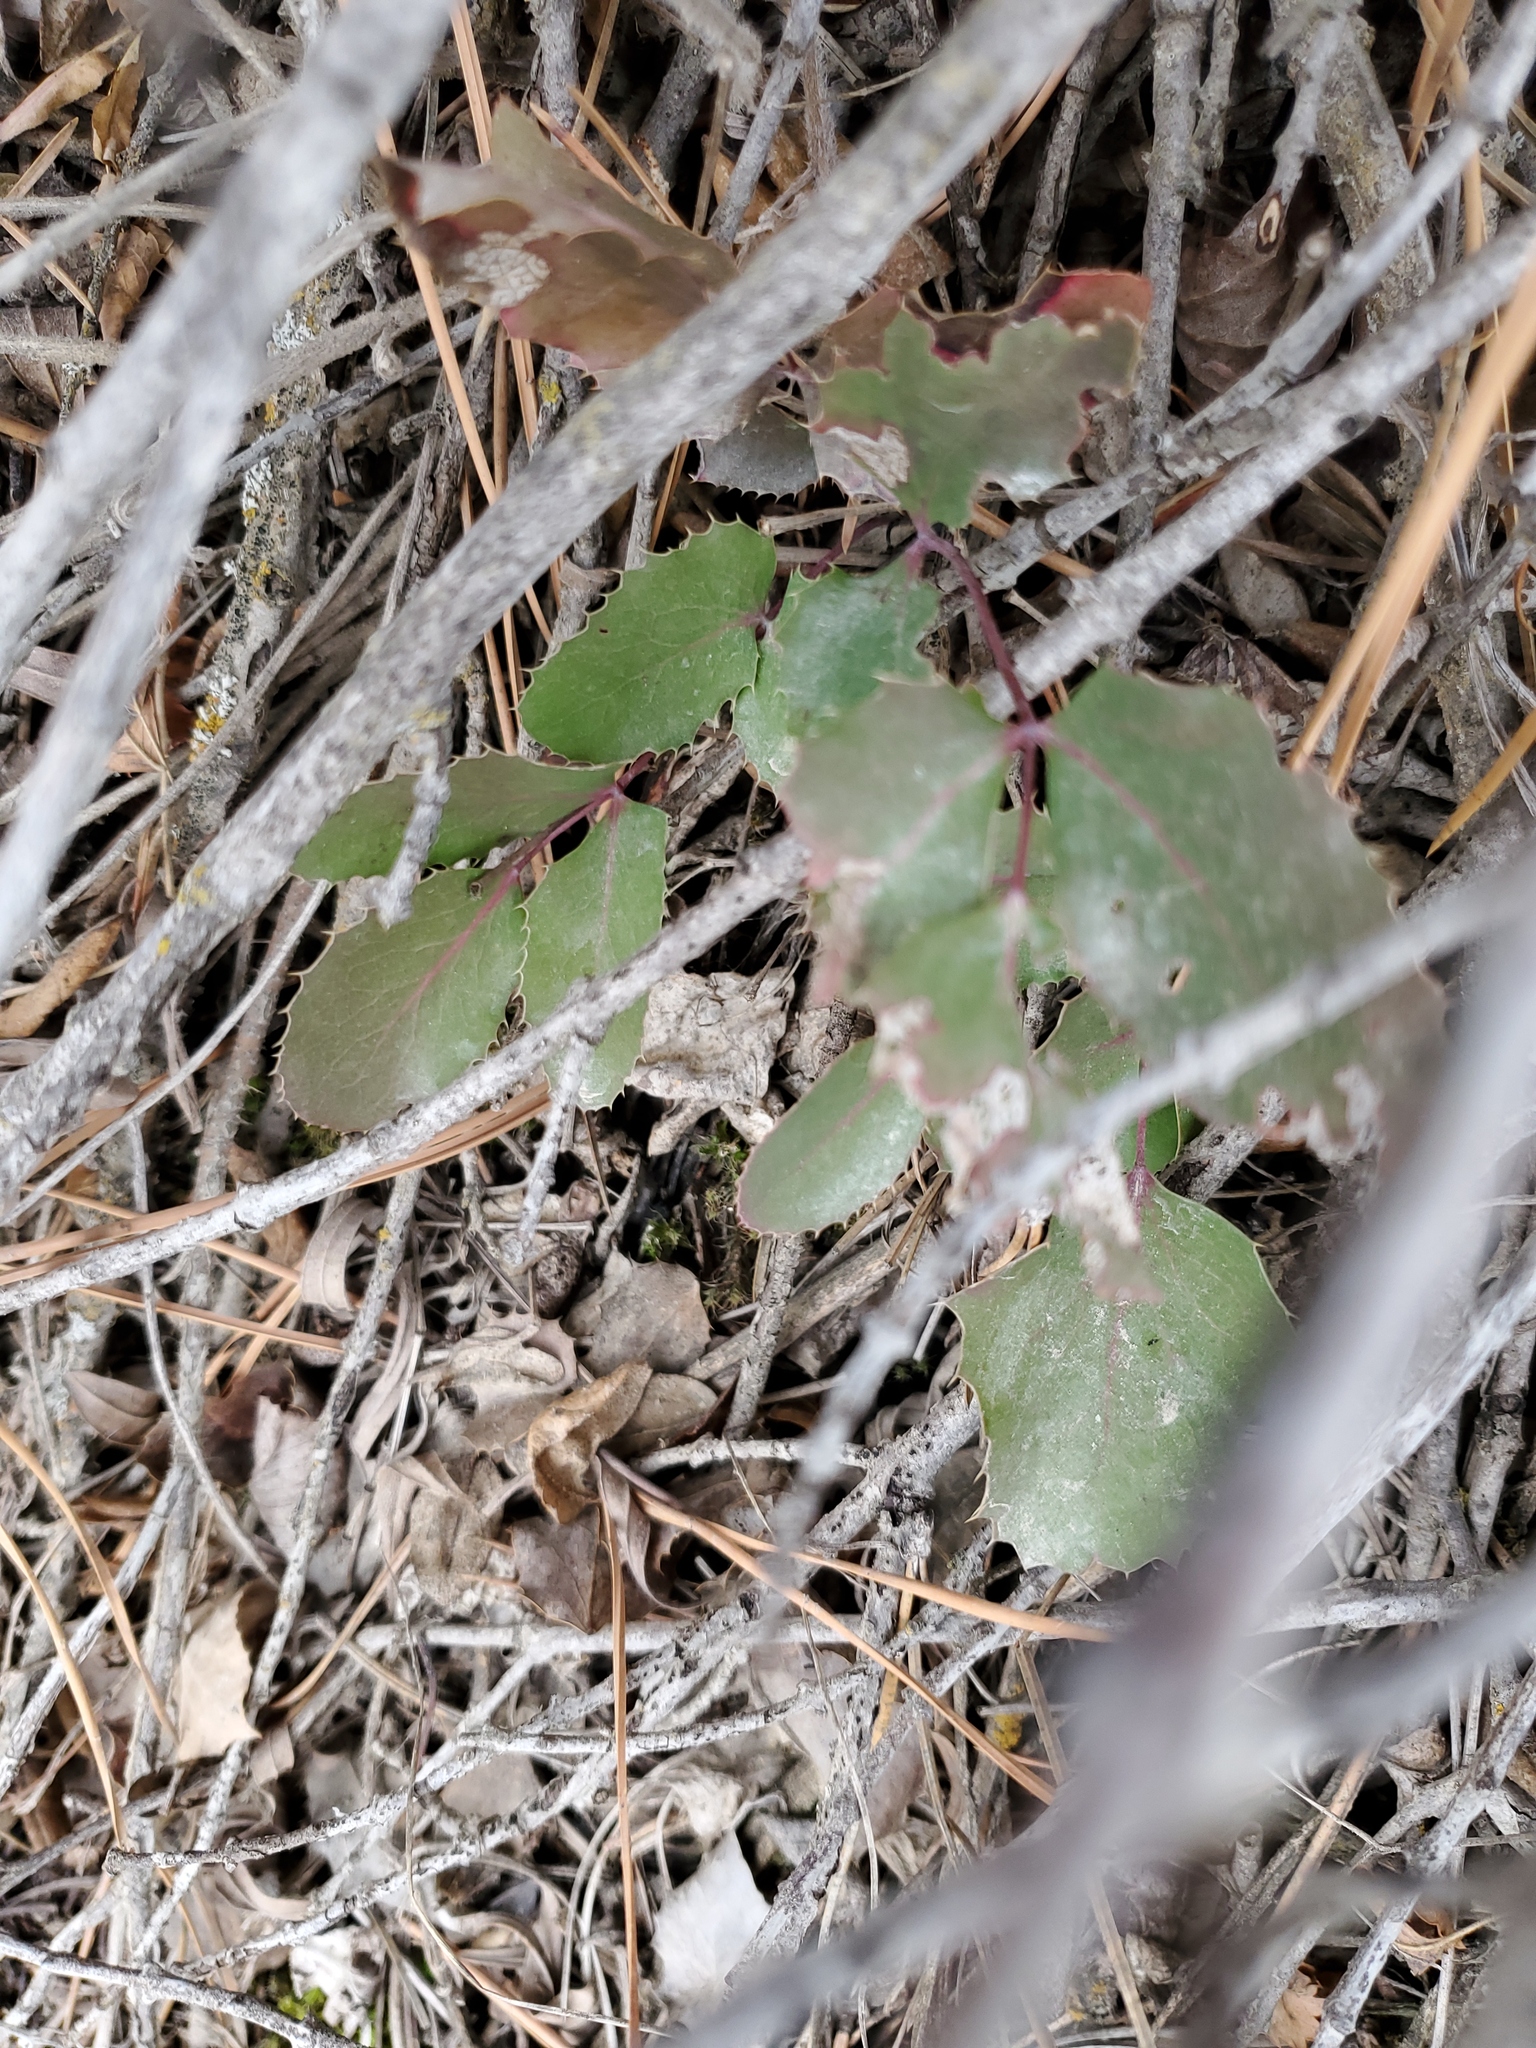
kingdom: Plantae
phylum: Tracheophyta
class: Magnoliopsida
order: Ranunculales
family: Berberidaceae
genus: Mahonia
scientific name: Mahonia repens
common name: Creeping oregon-grape
